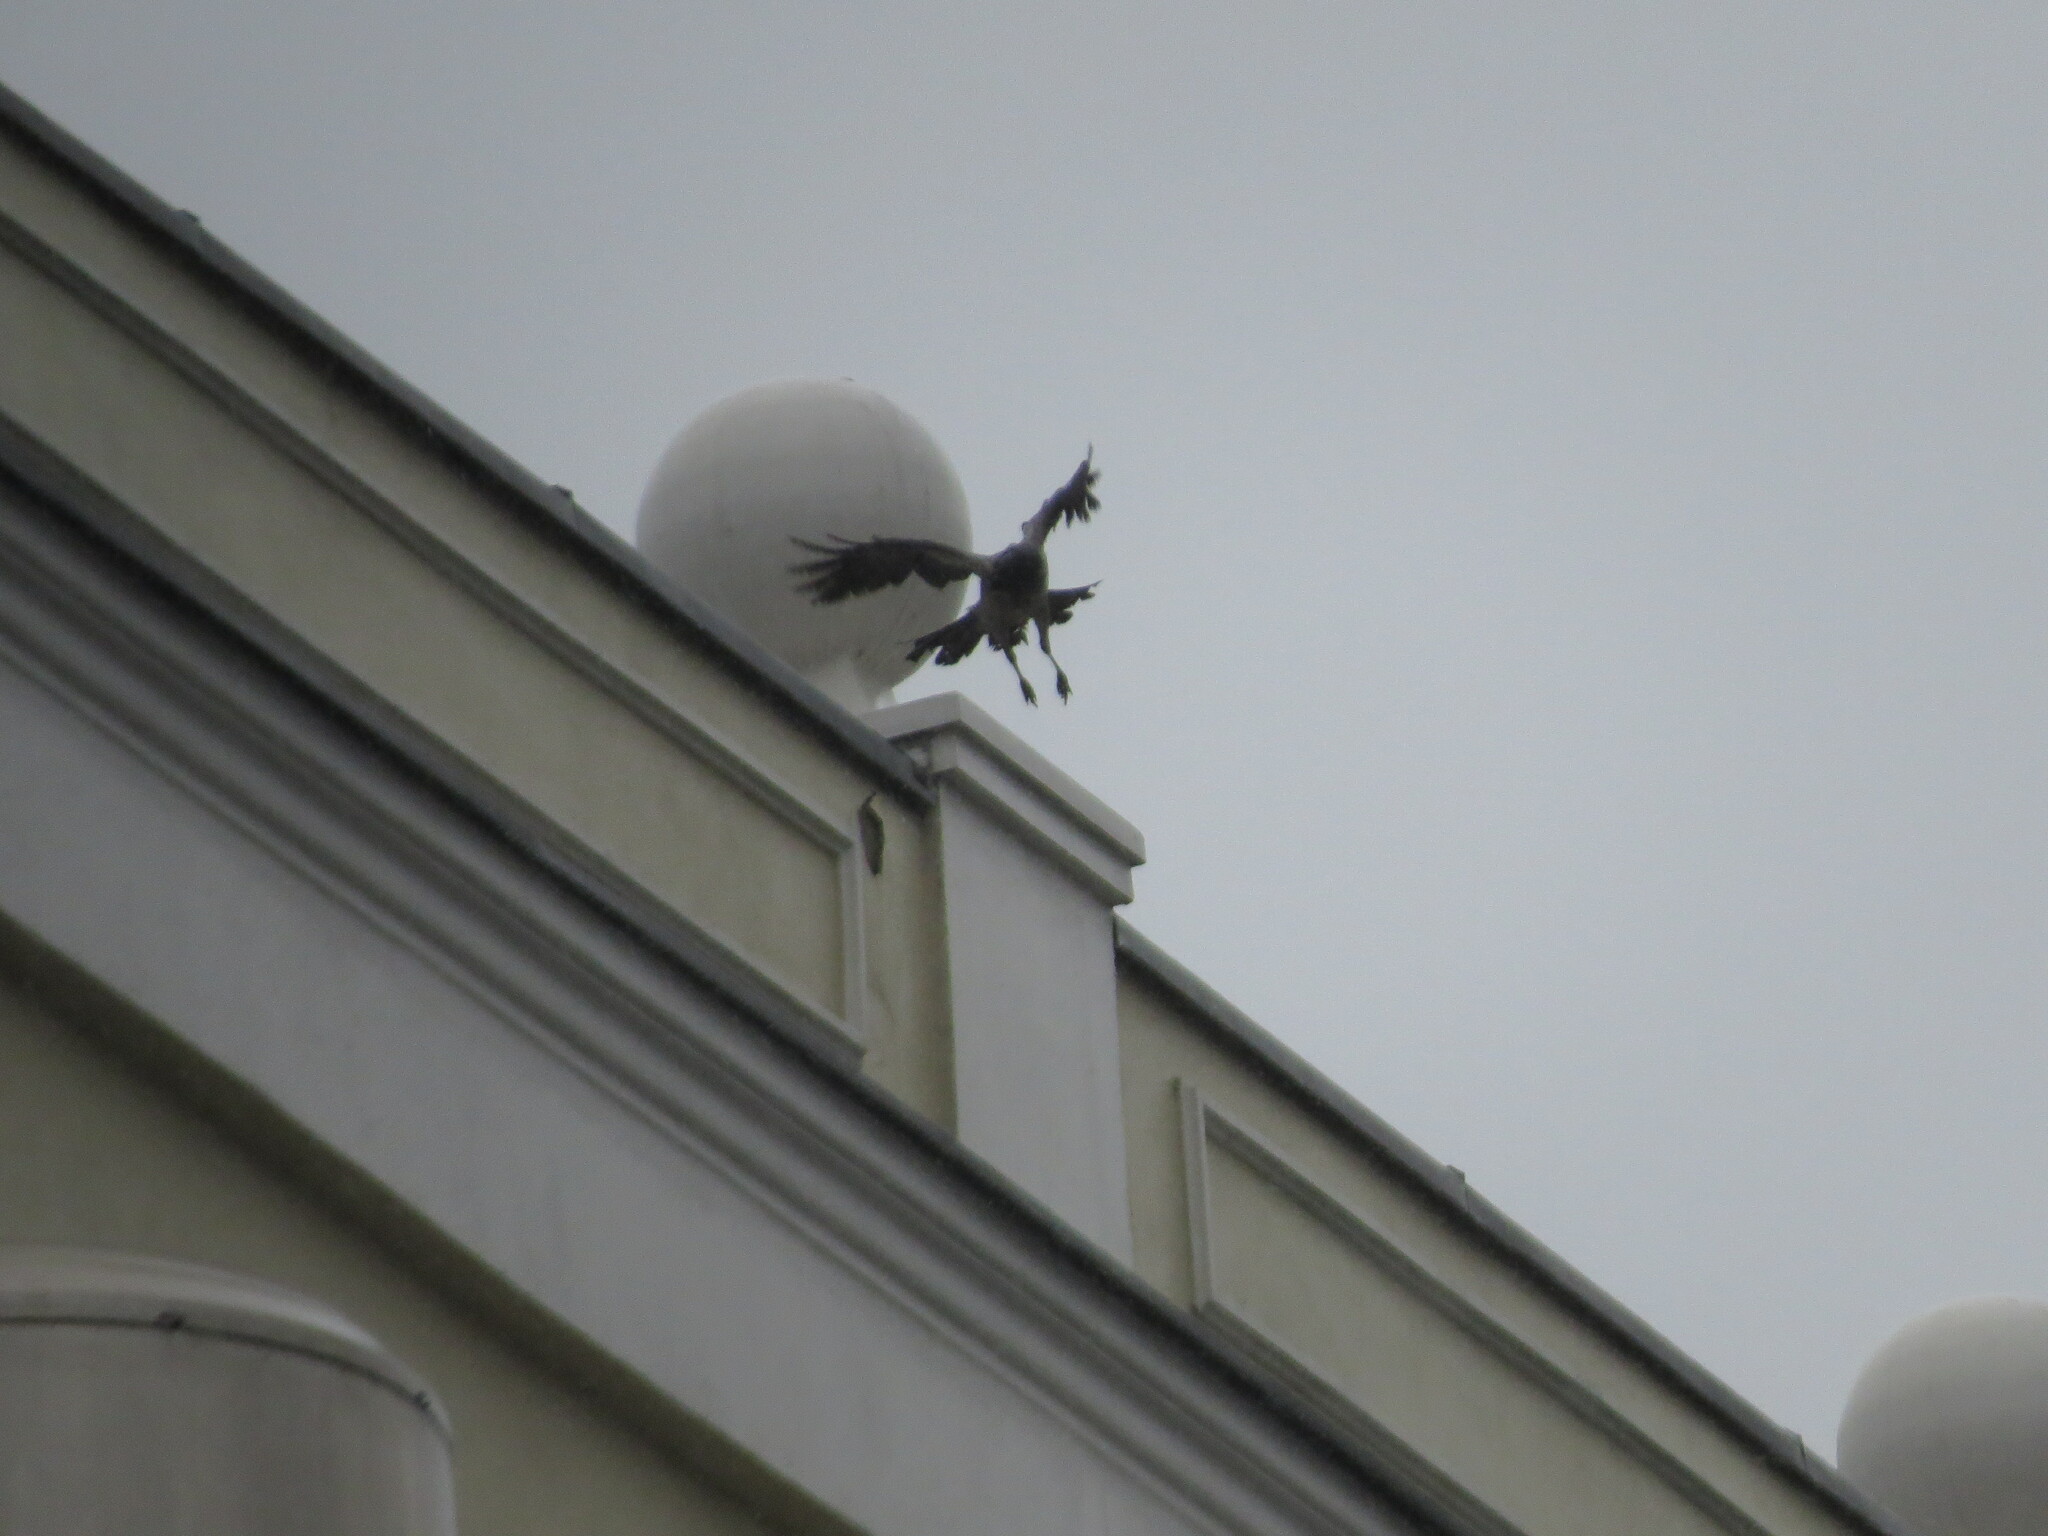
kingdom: Animalia
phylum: Chordata
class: Aves
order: Passeriformes
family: Corvidae
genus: Corvus
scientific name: Corvus cornix
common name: Hooded crow
